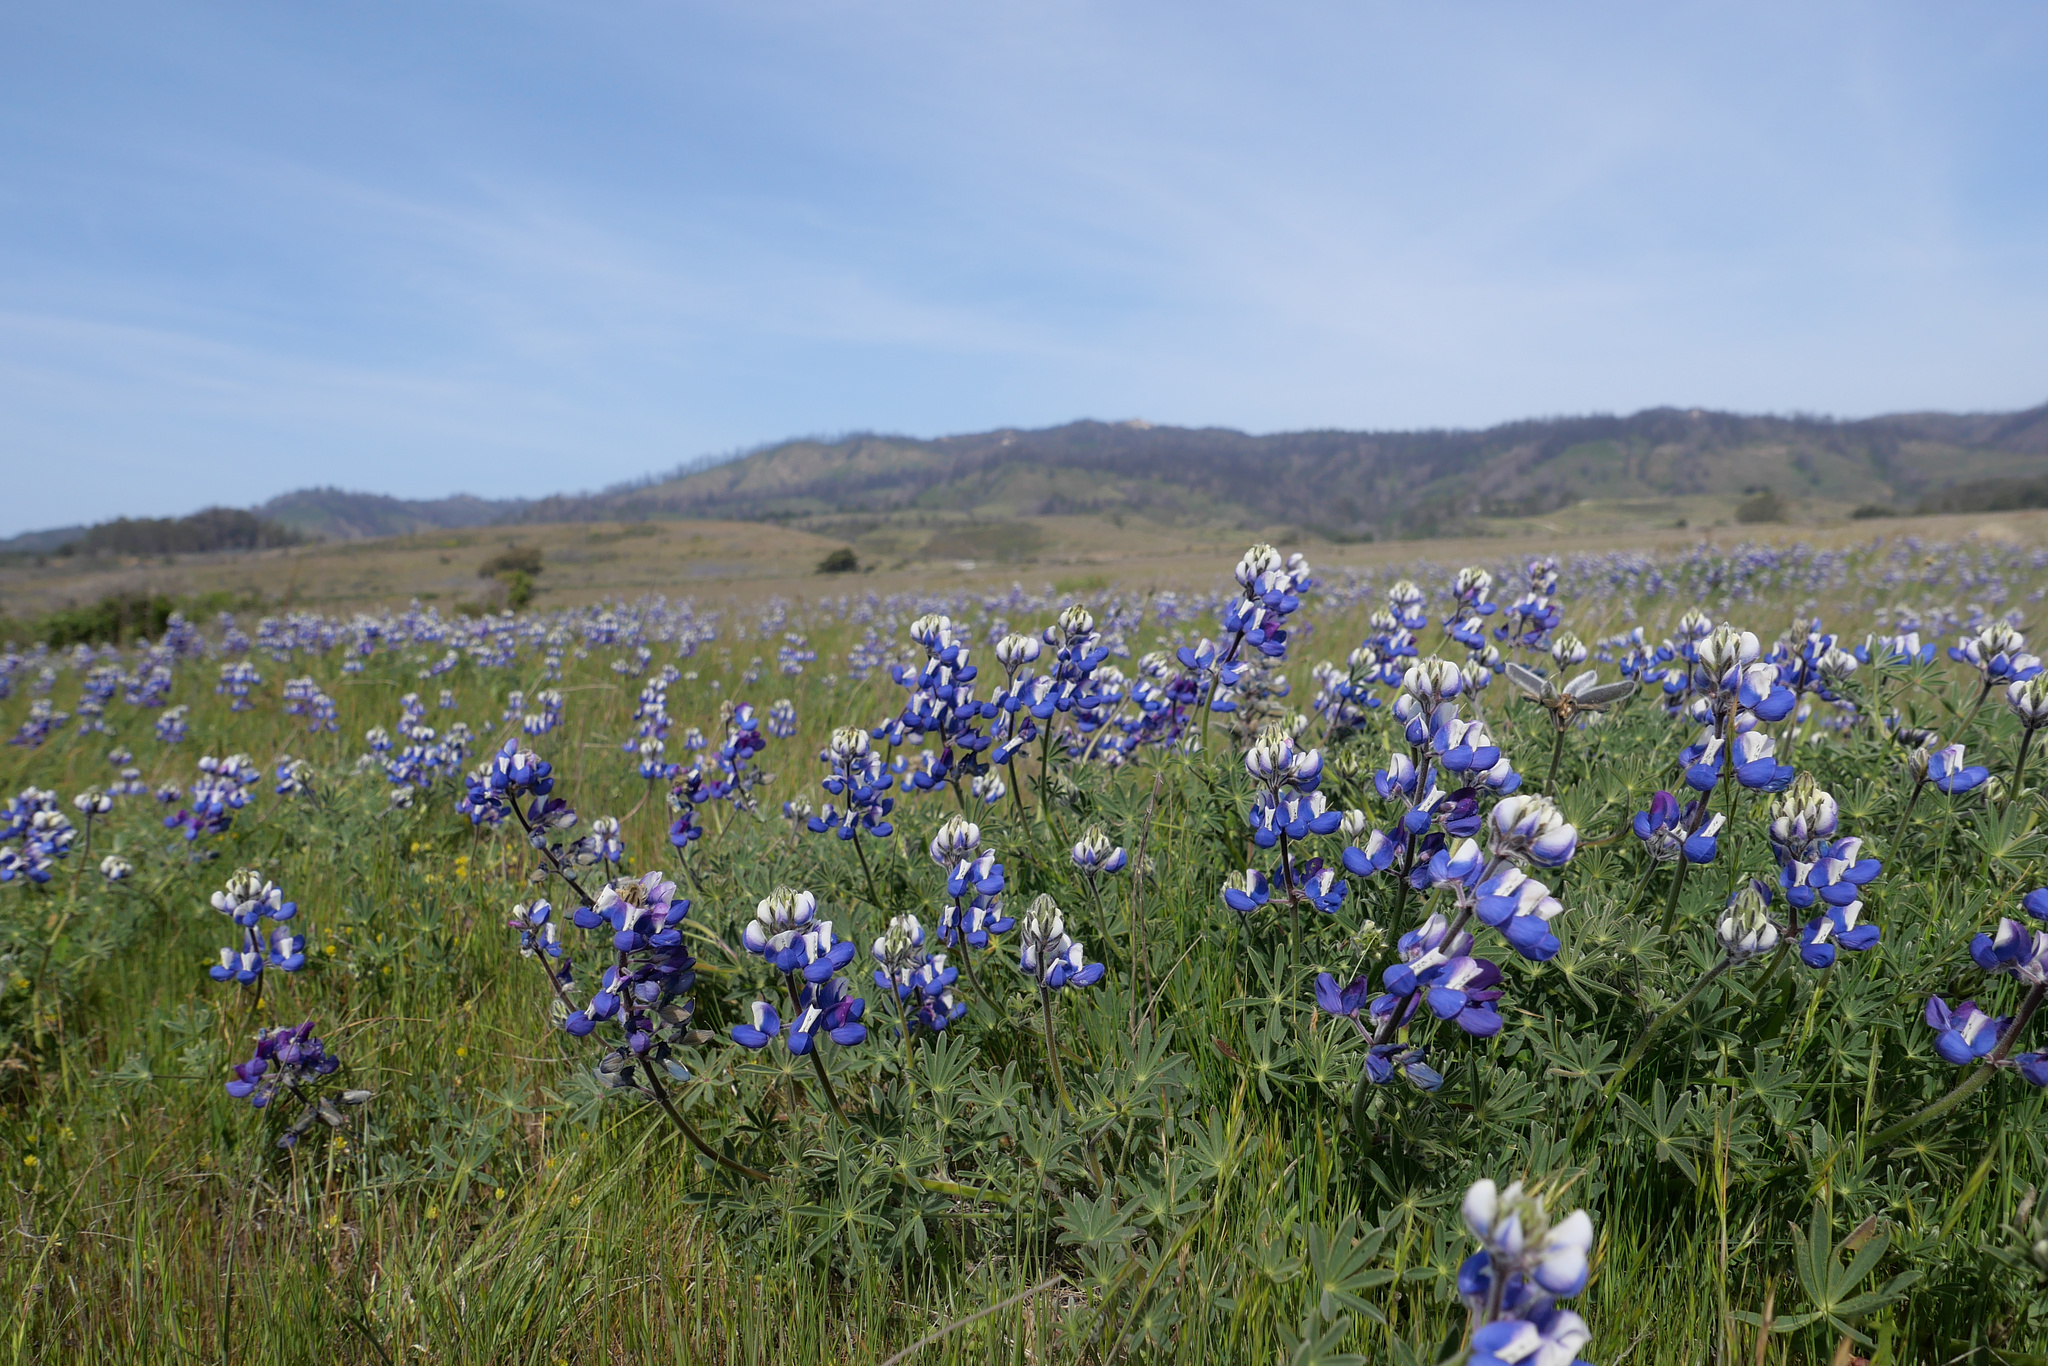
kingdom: Plantae
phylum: Tracheophyta
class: Magnoliopsida
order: Fabales
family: Fabaceae
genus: Lupinus
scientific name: Lupinus nanus
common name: Orean blue lupin
